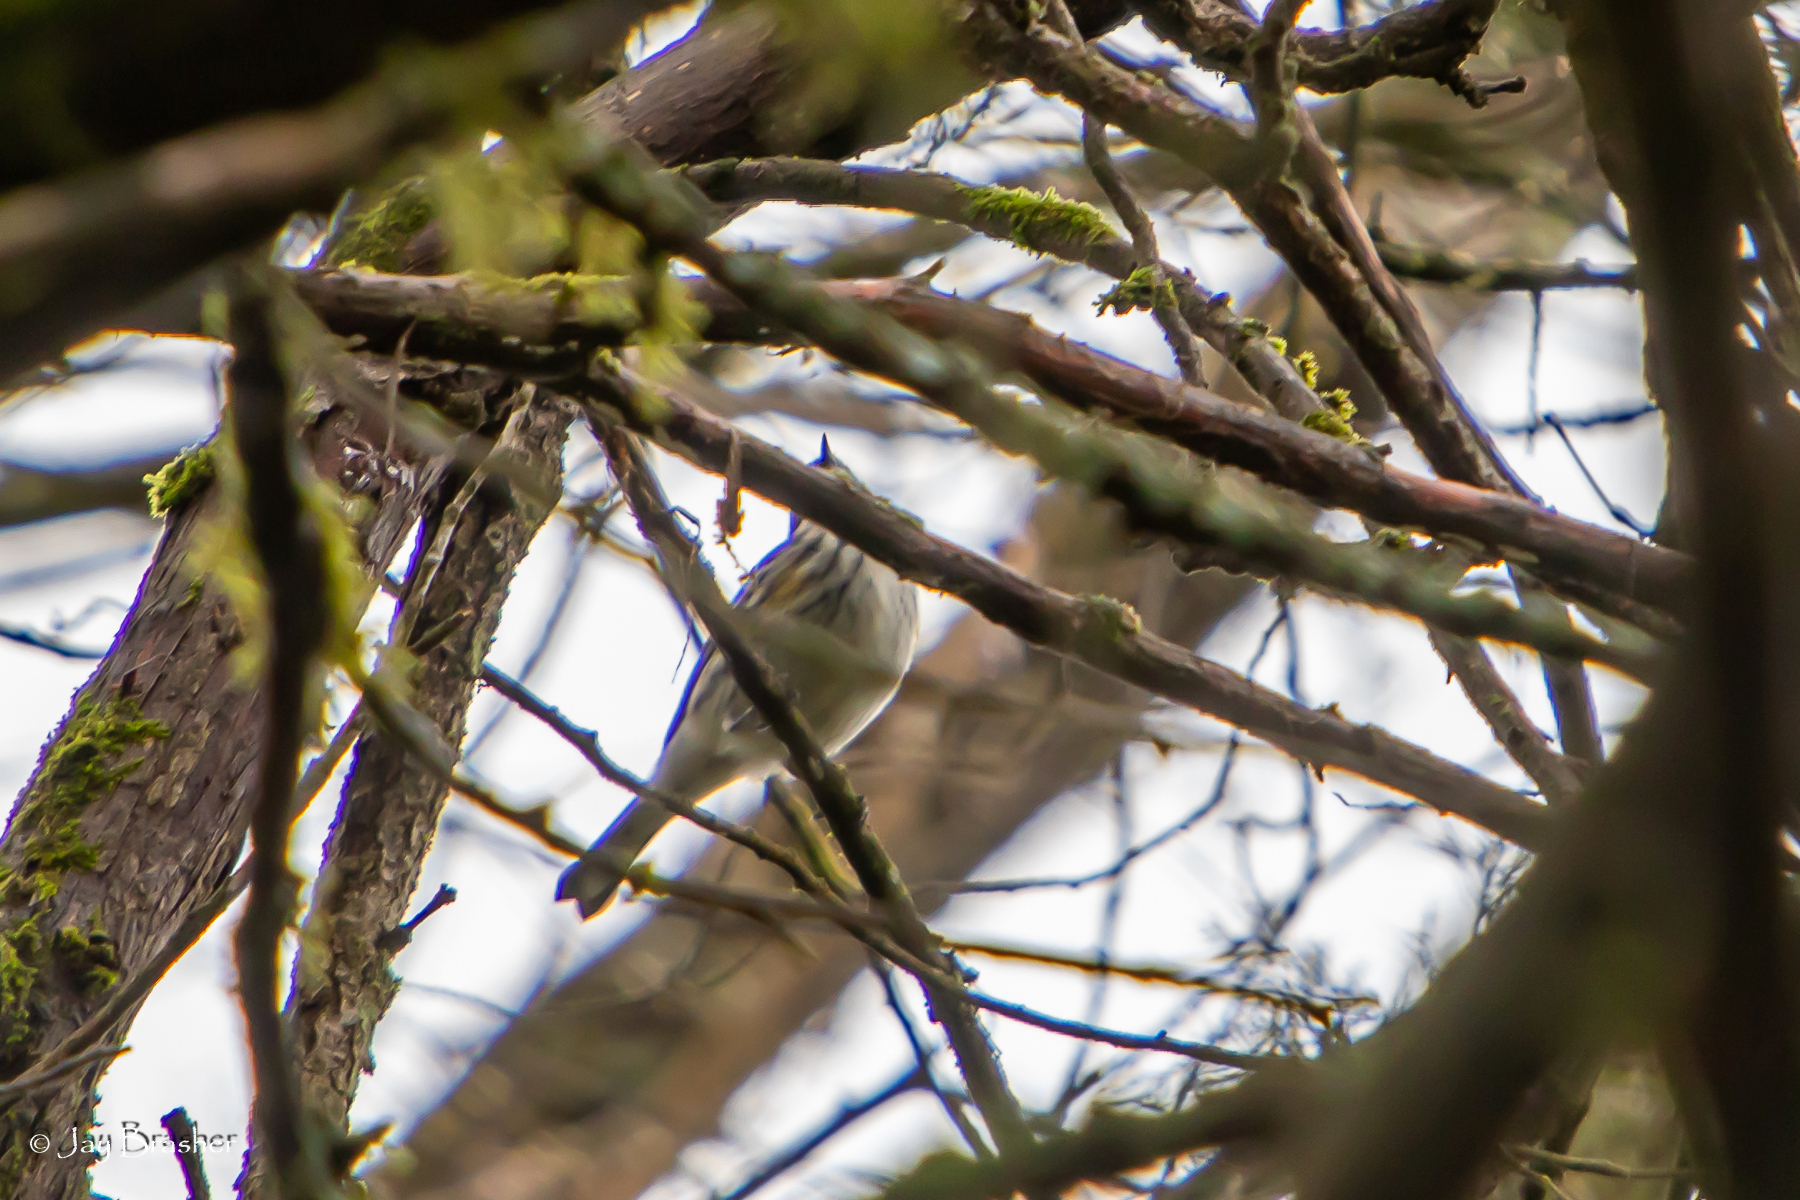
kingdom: Animalia
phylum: Chordata
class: Aves
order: Passeriformes
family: Parulidae
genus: Setophaga
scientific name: Setophaga coronata
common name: Myrtle warbler
